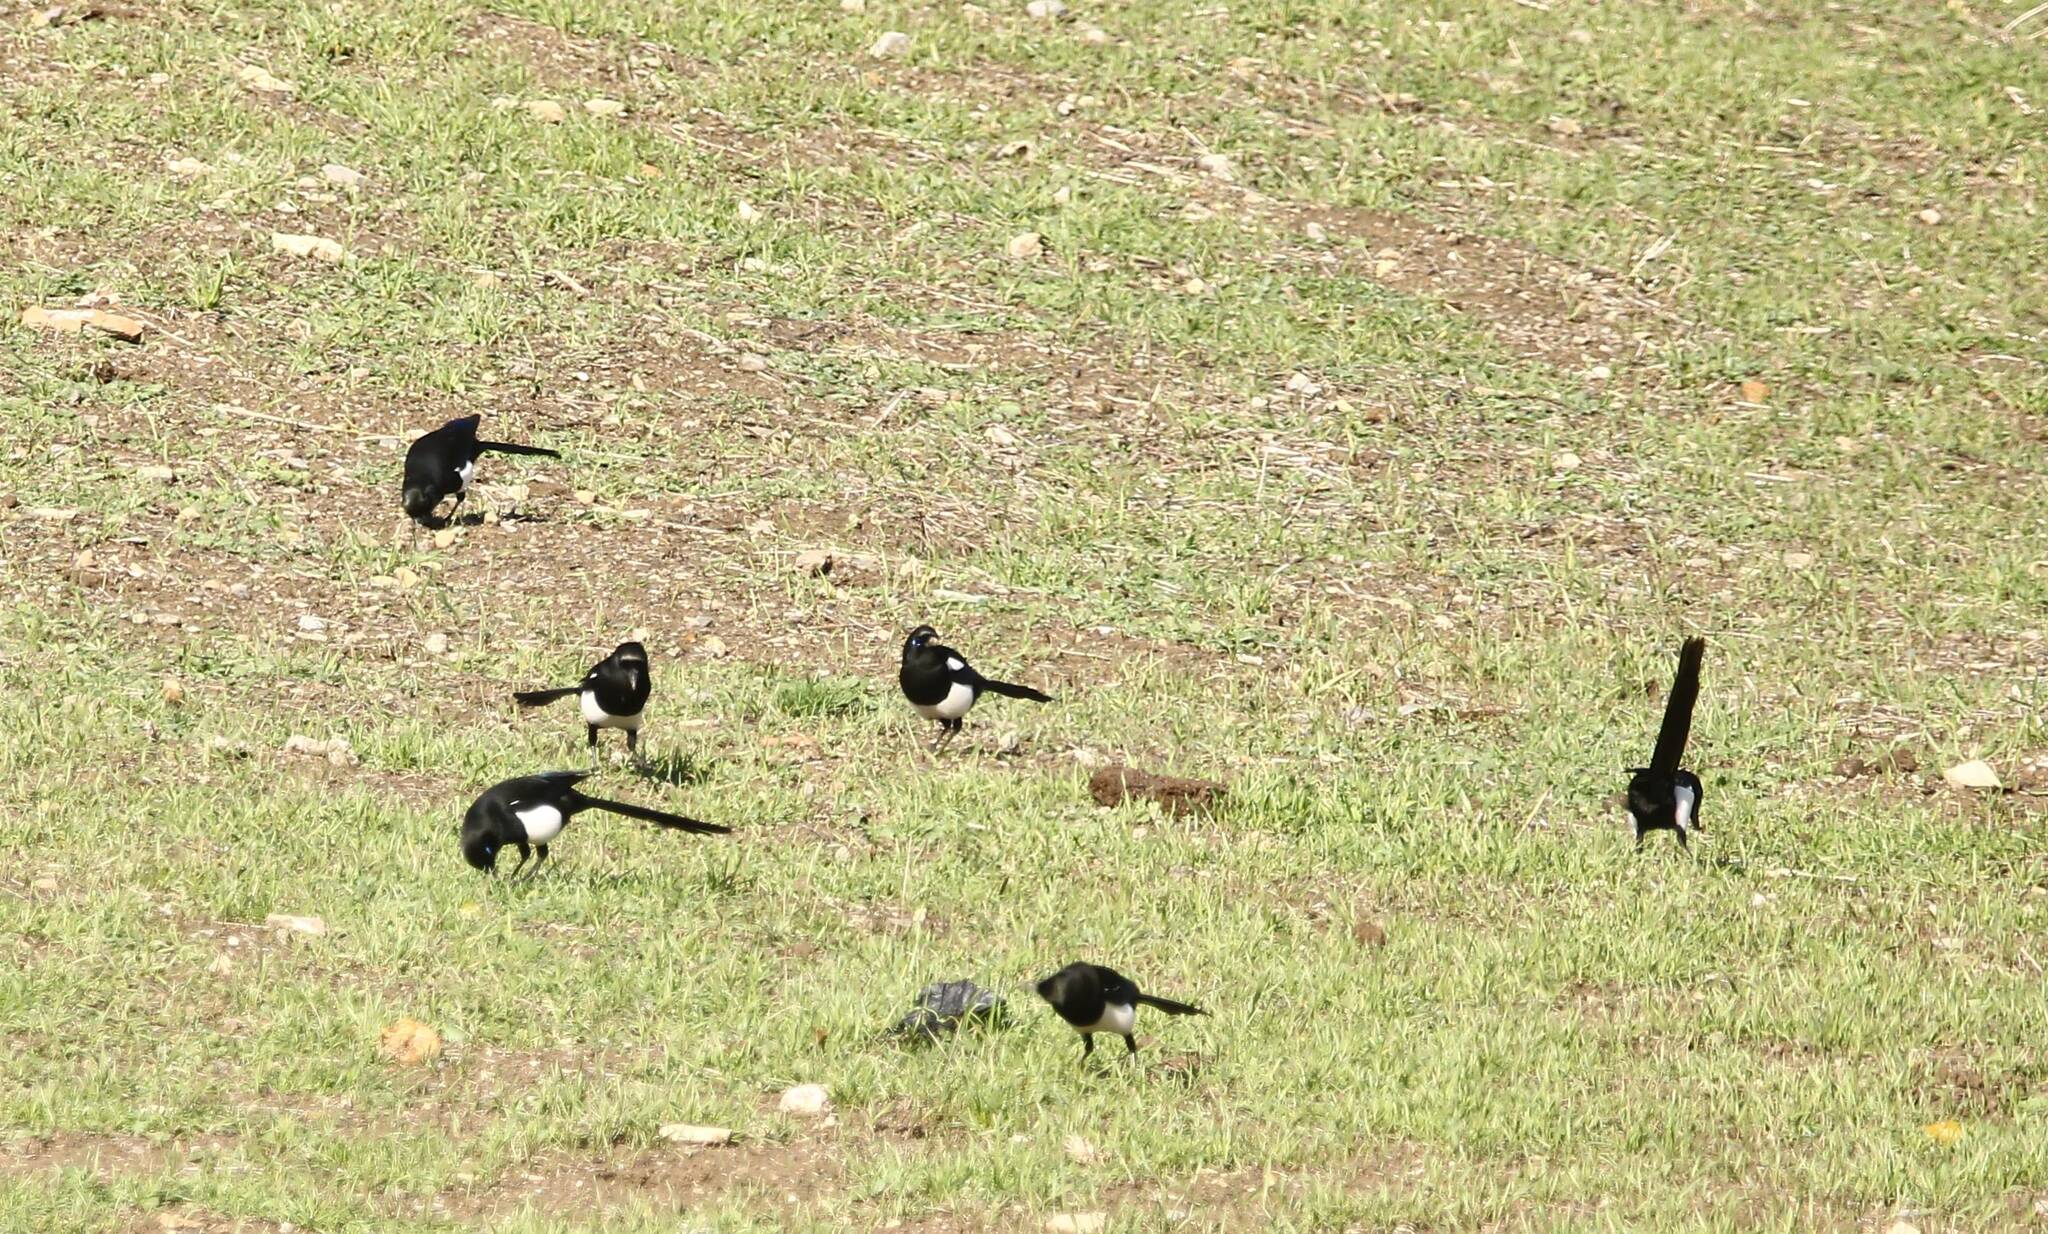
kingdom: Animalia
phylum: Chordata
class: Aves
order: Passeriformes
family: Corvidae
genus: Pica
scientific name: Pica mauritanica
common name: Maghreb magpie
